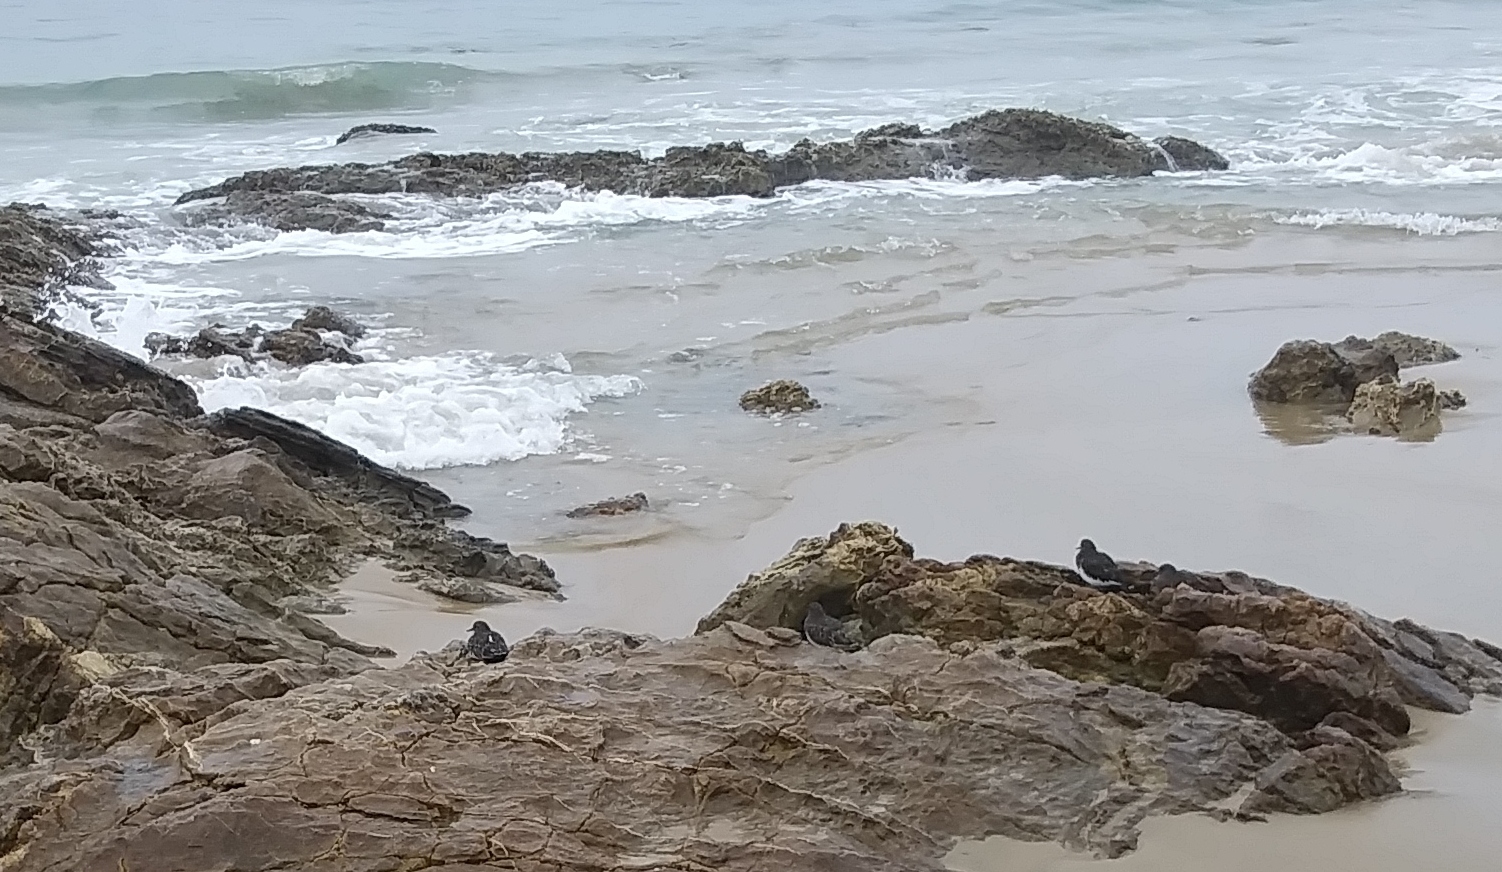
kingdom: Animalia
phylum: Chordata
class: Aves
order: Charadriiformes
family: Scolopacidae
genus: Arenaria
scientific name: Arenaria melanocephala
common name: Black turnstone
